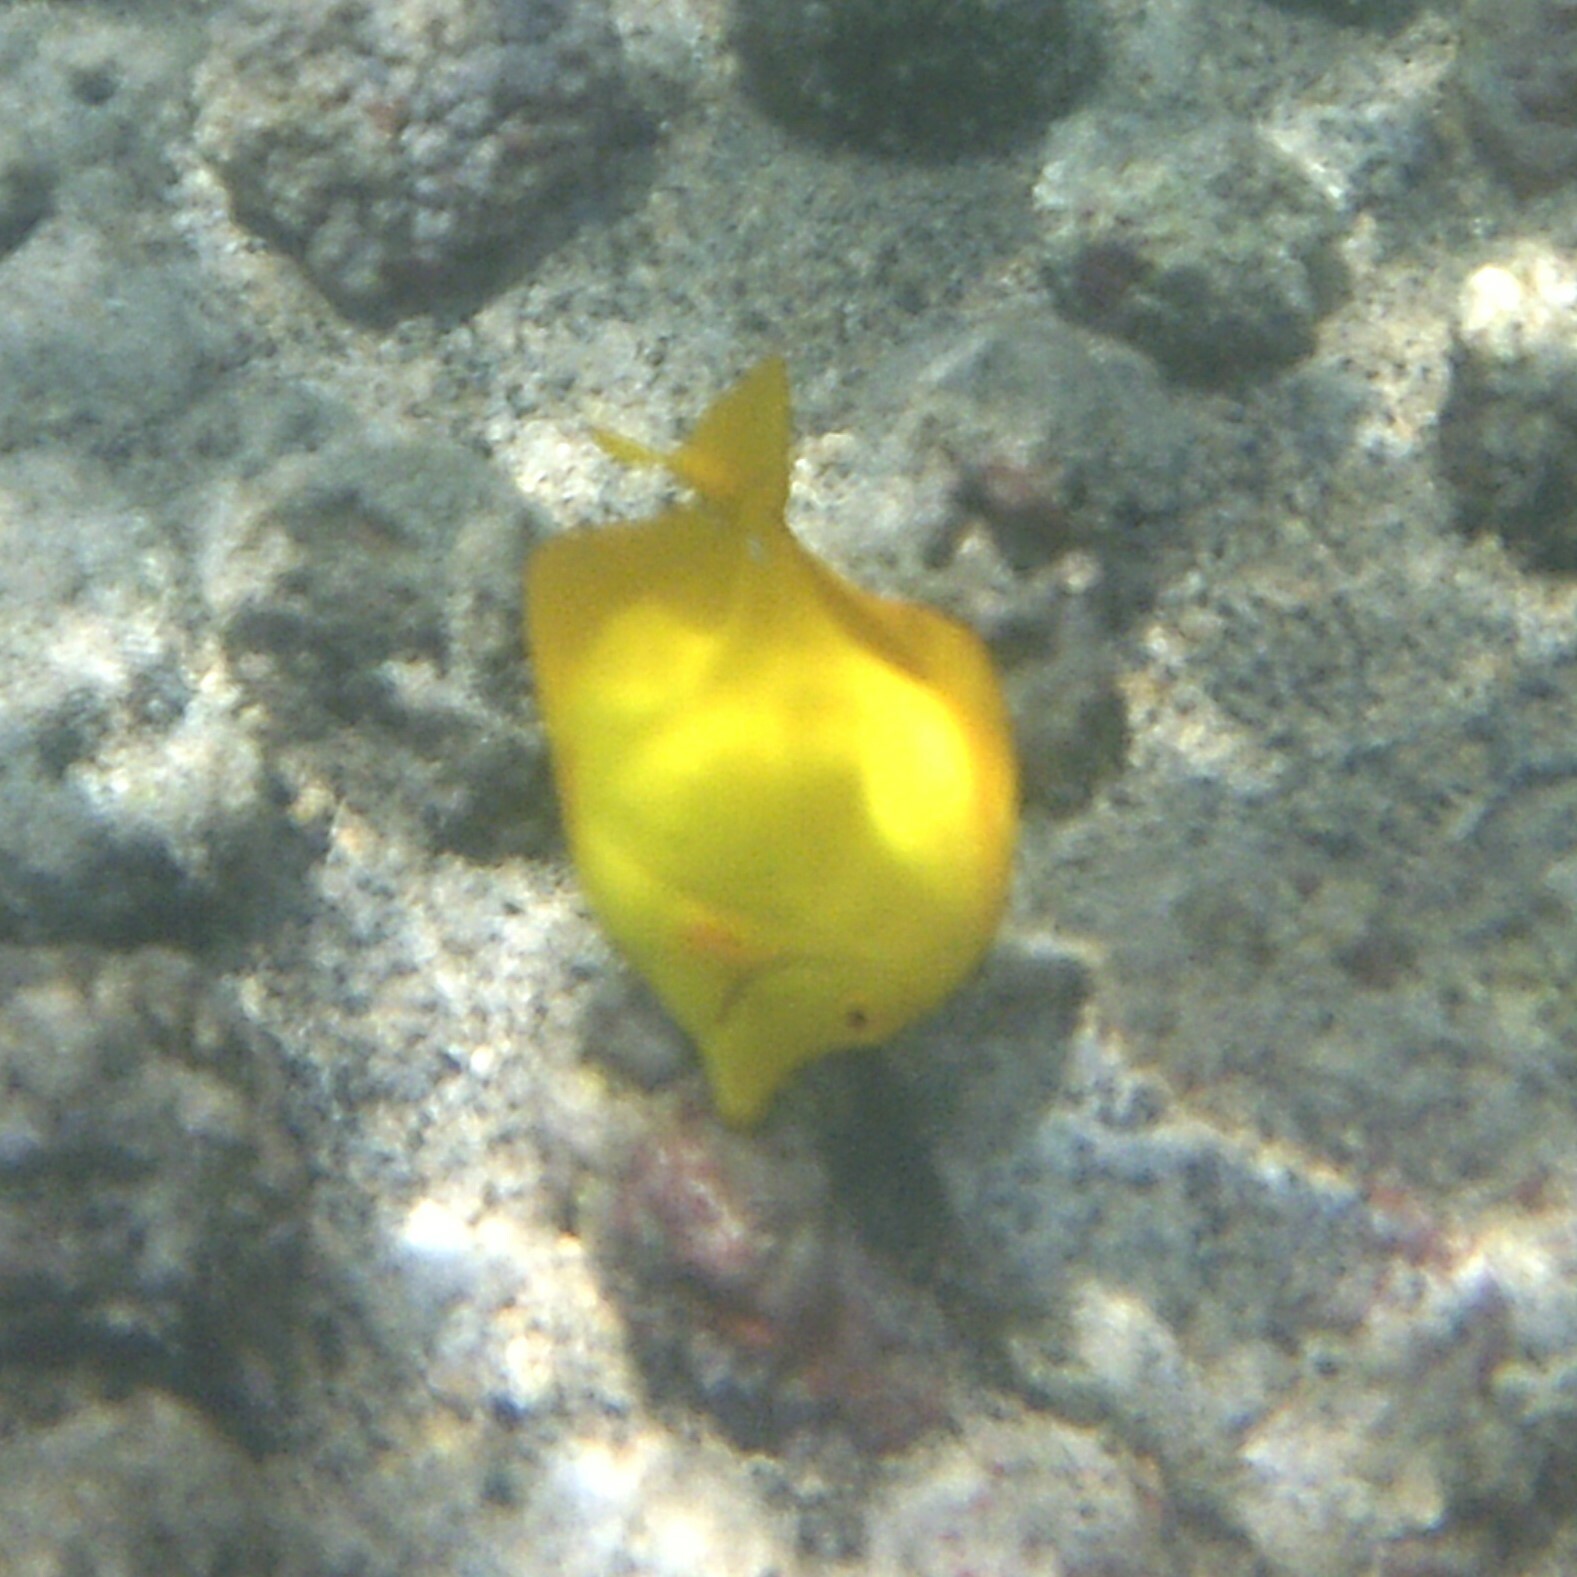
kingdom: Animalia
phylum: Chordata
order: Perciformes
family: Acanthuridae
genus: Zebrasoma
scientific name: Zebrasoma flavescens
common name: Yellow tang
